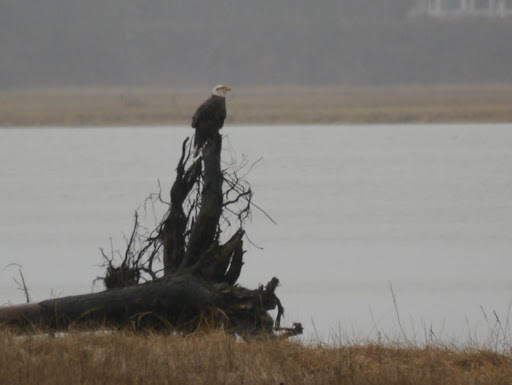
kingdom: Animalia
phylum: Chordata
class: Aves
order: Accipitriformes
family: Accipitridae
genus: Haliaeetus
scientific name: Haliaeetus leucocephalus
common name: Bald eagle
